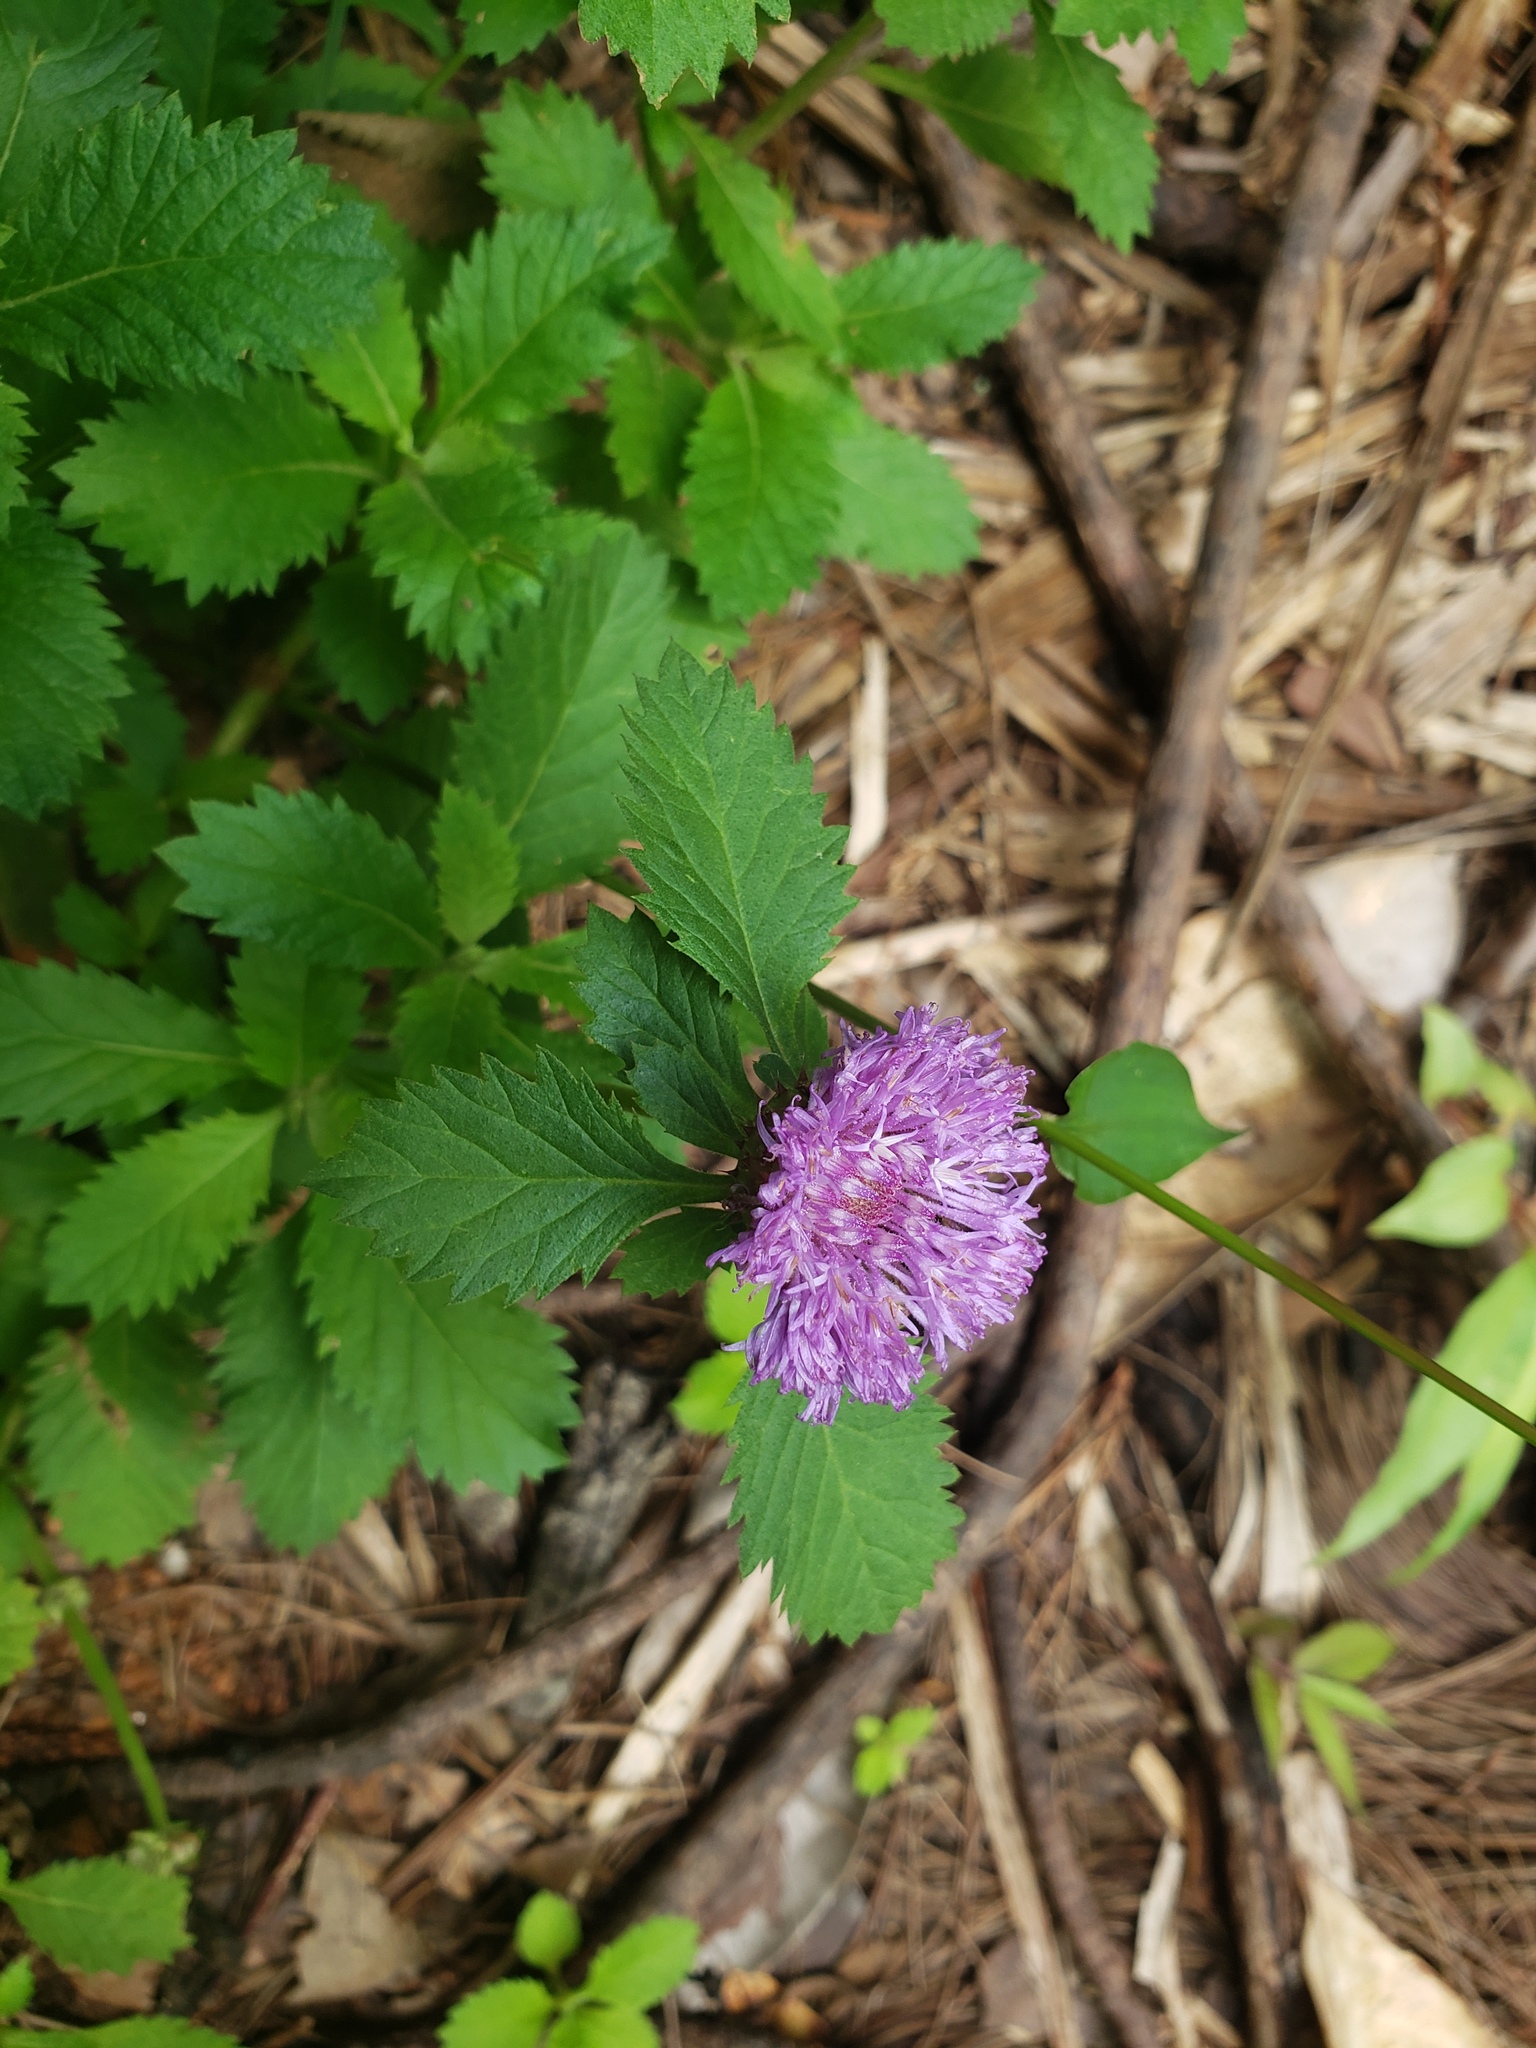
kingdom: Plantae
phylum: Tracheophyta
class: Magnoliopsida
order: Asterales
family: Asteraceae
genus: Centratherum
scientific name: Centratherum punctatum
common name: Larkdaisy
